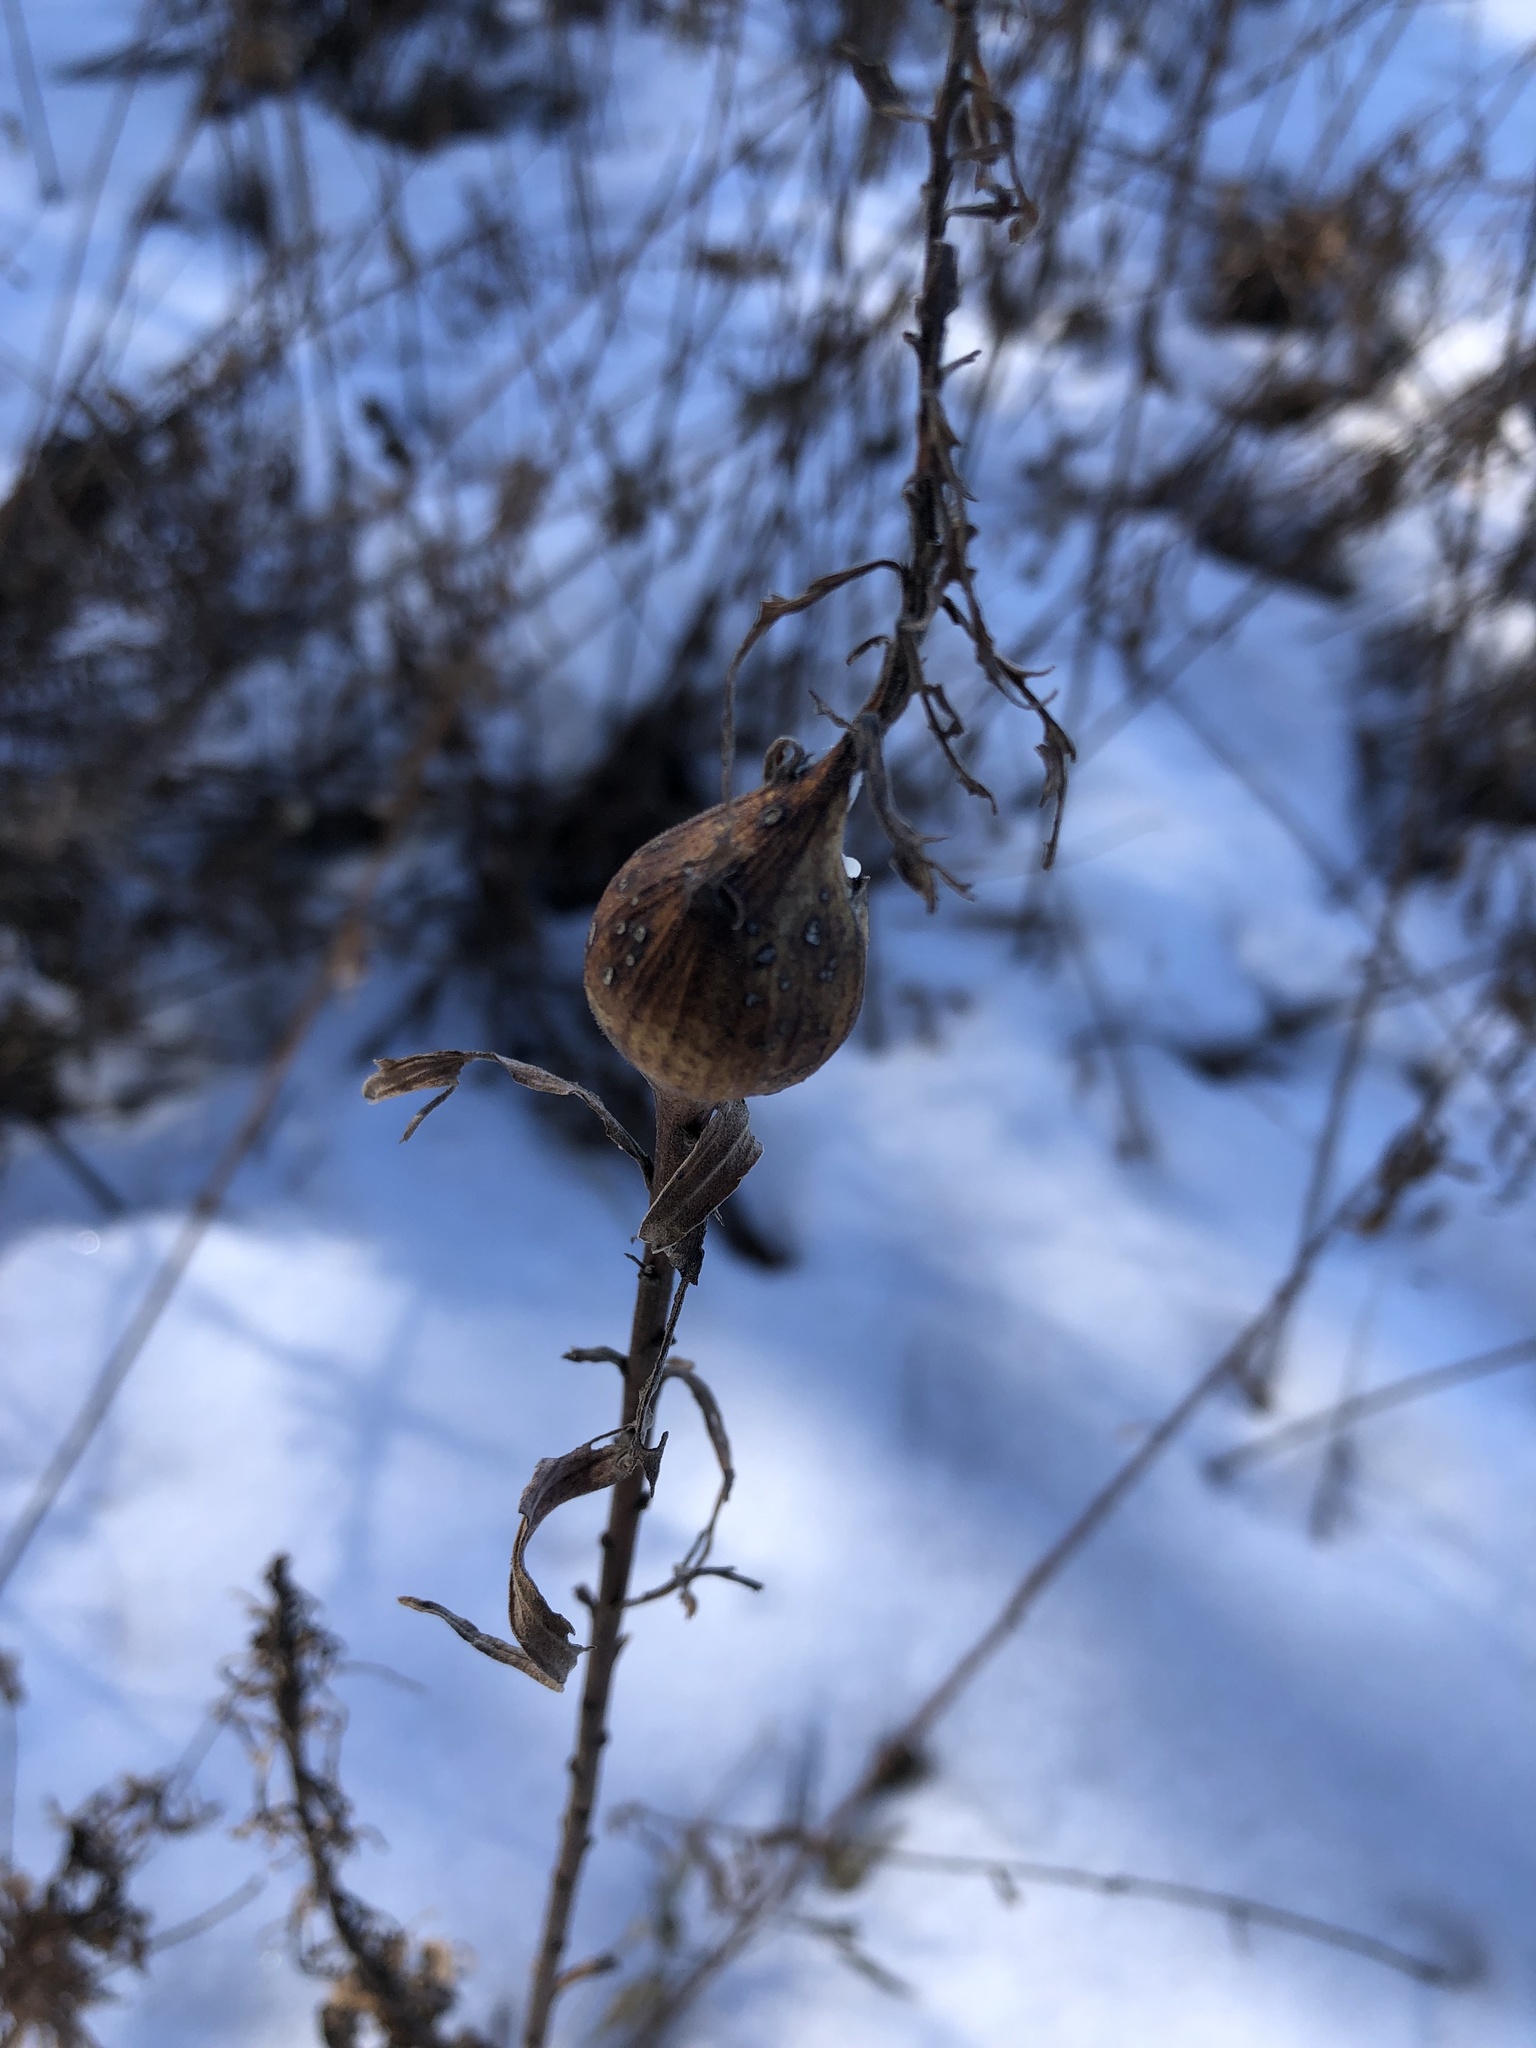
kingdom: Animalia
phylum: Arthropoda
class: Insecta
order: Diptera
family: Tephritidae
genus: Eurosta
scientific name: Eurosta solidaginis
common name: Goldenrod gall fly
